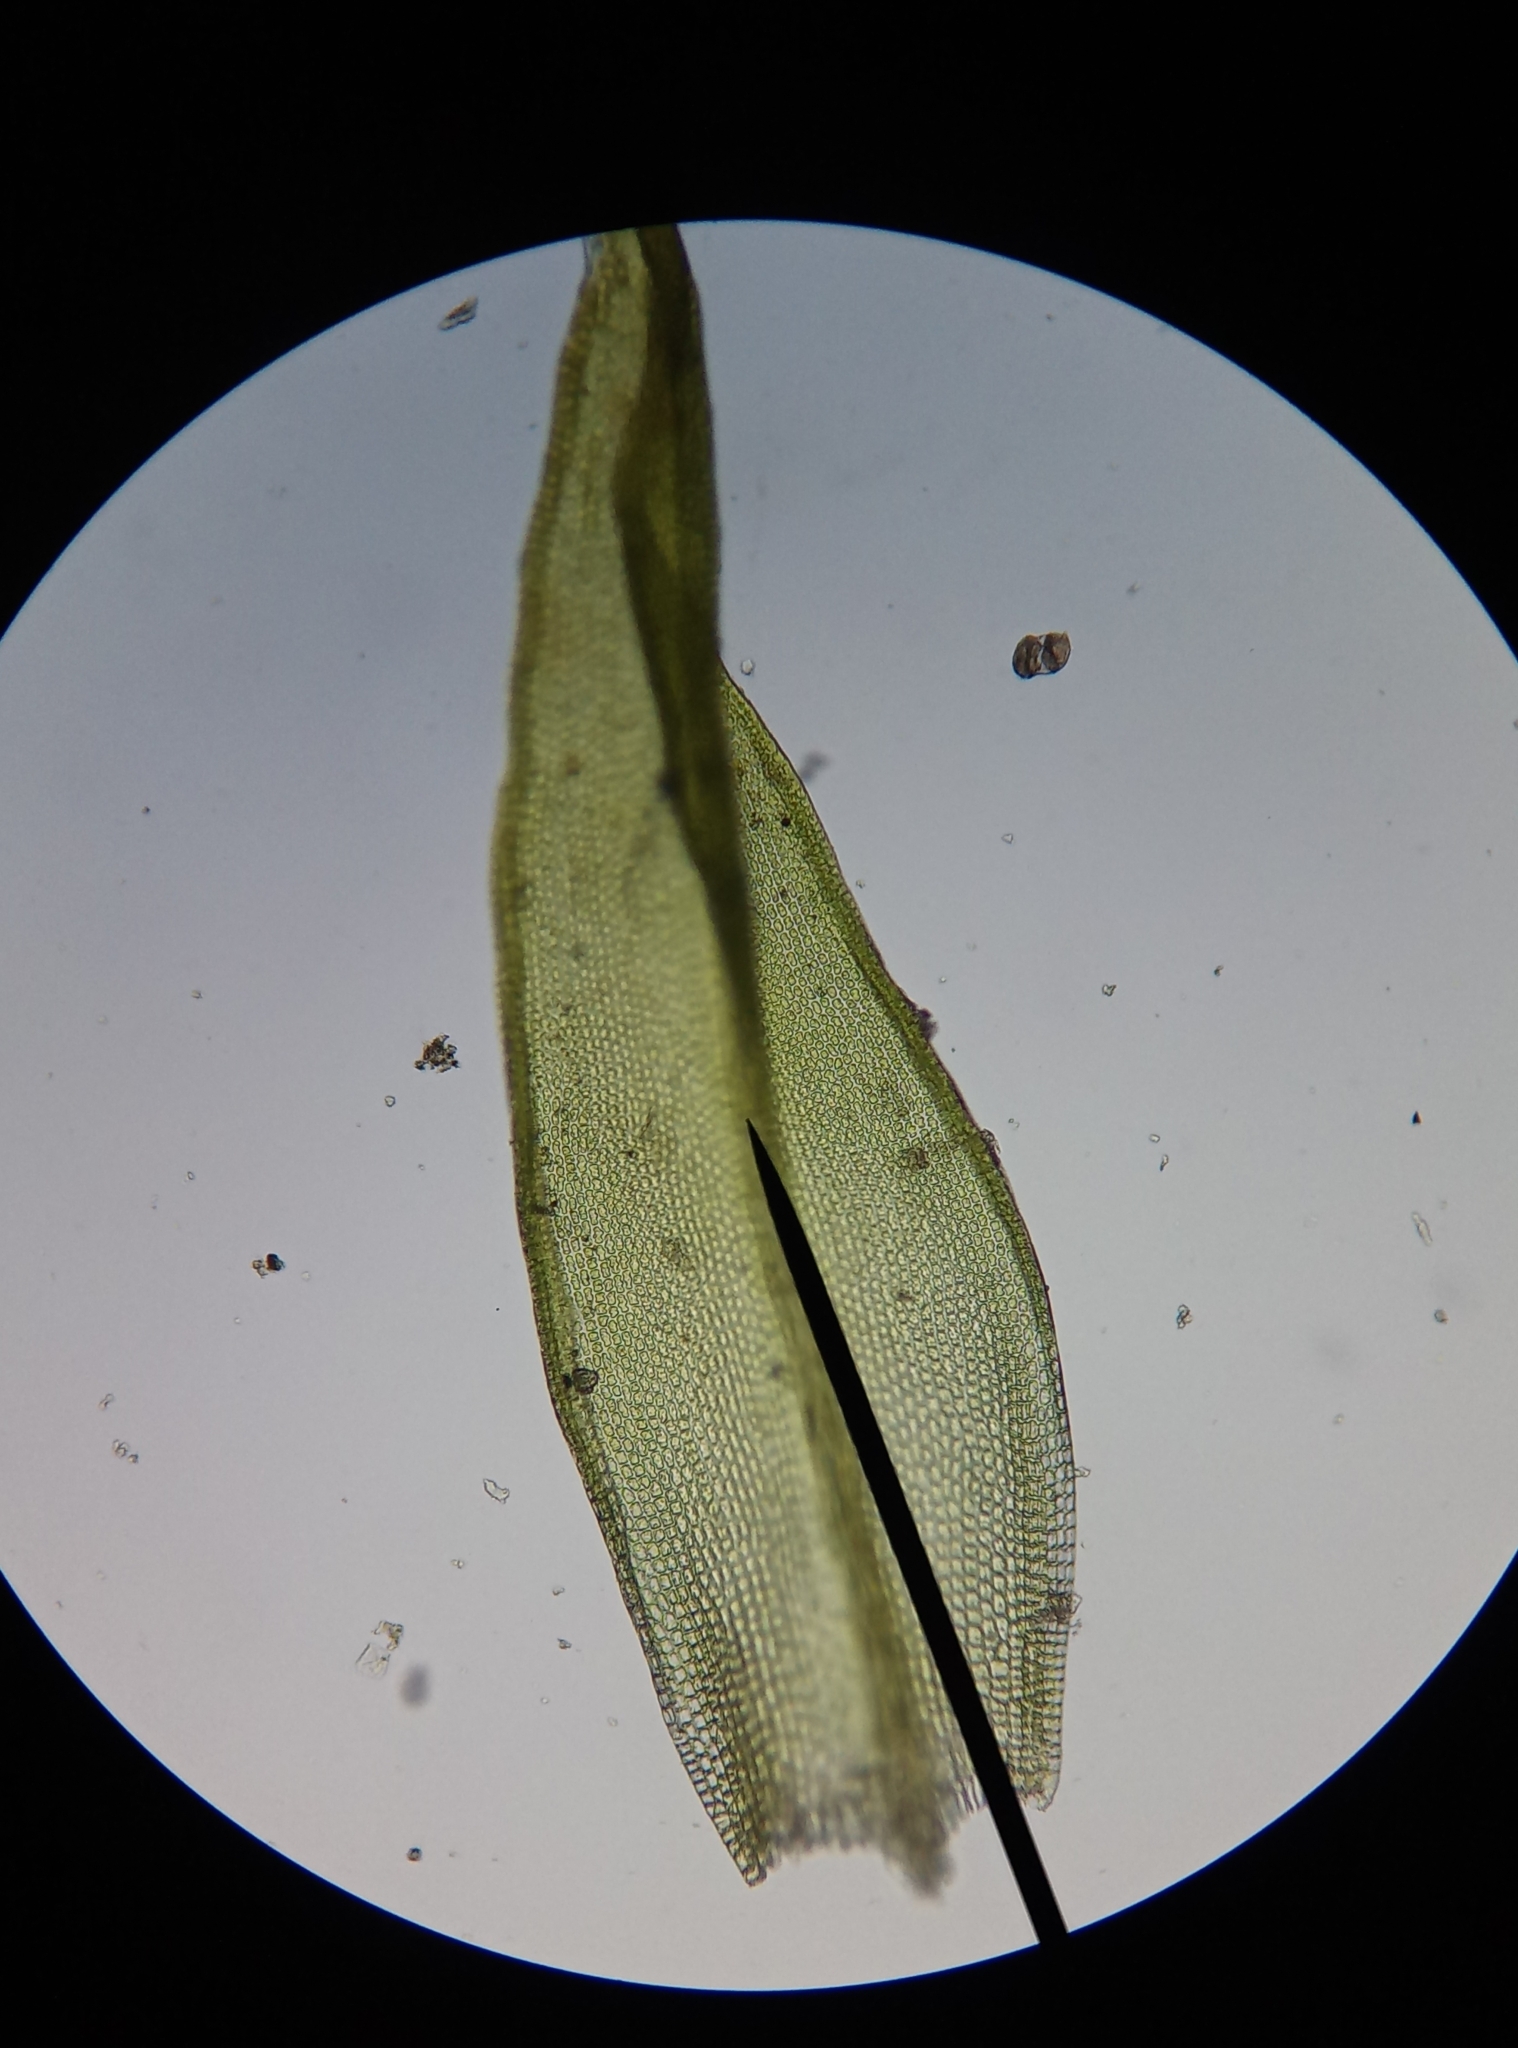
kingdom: Plantae
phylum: Bryophyta
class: Bryopsida
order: Grimmiales
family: Grimmiaceae
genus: Grimmia
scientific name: Grimmia pulvinata
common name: Grey-cushioned grimmia
